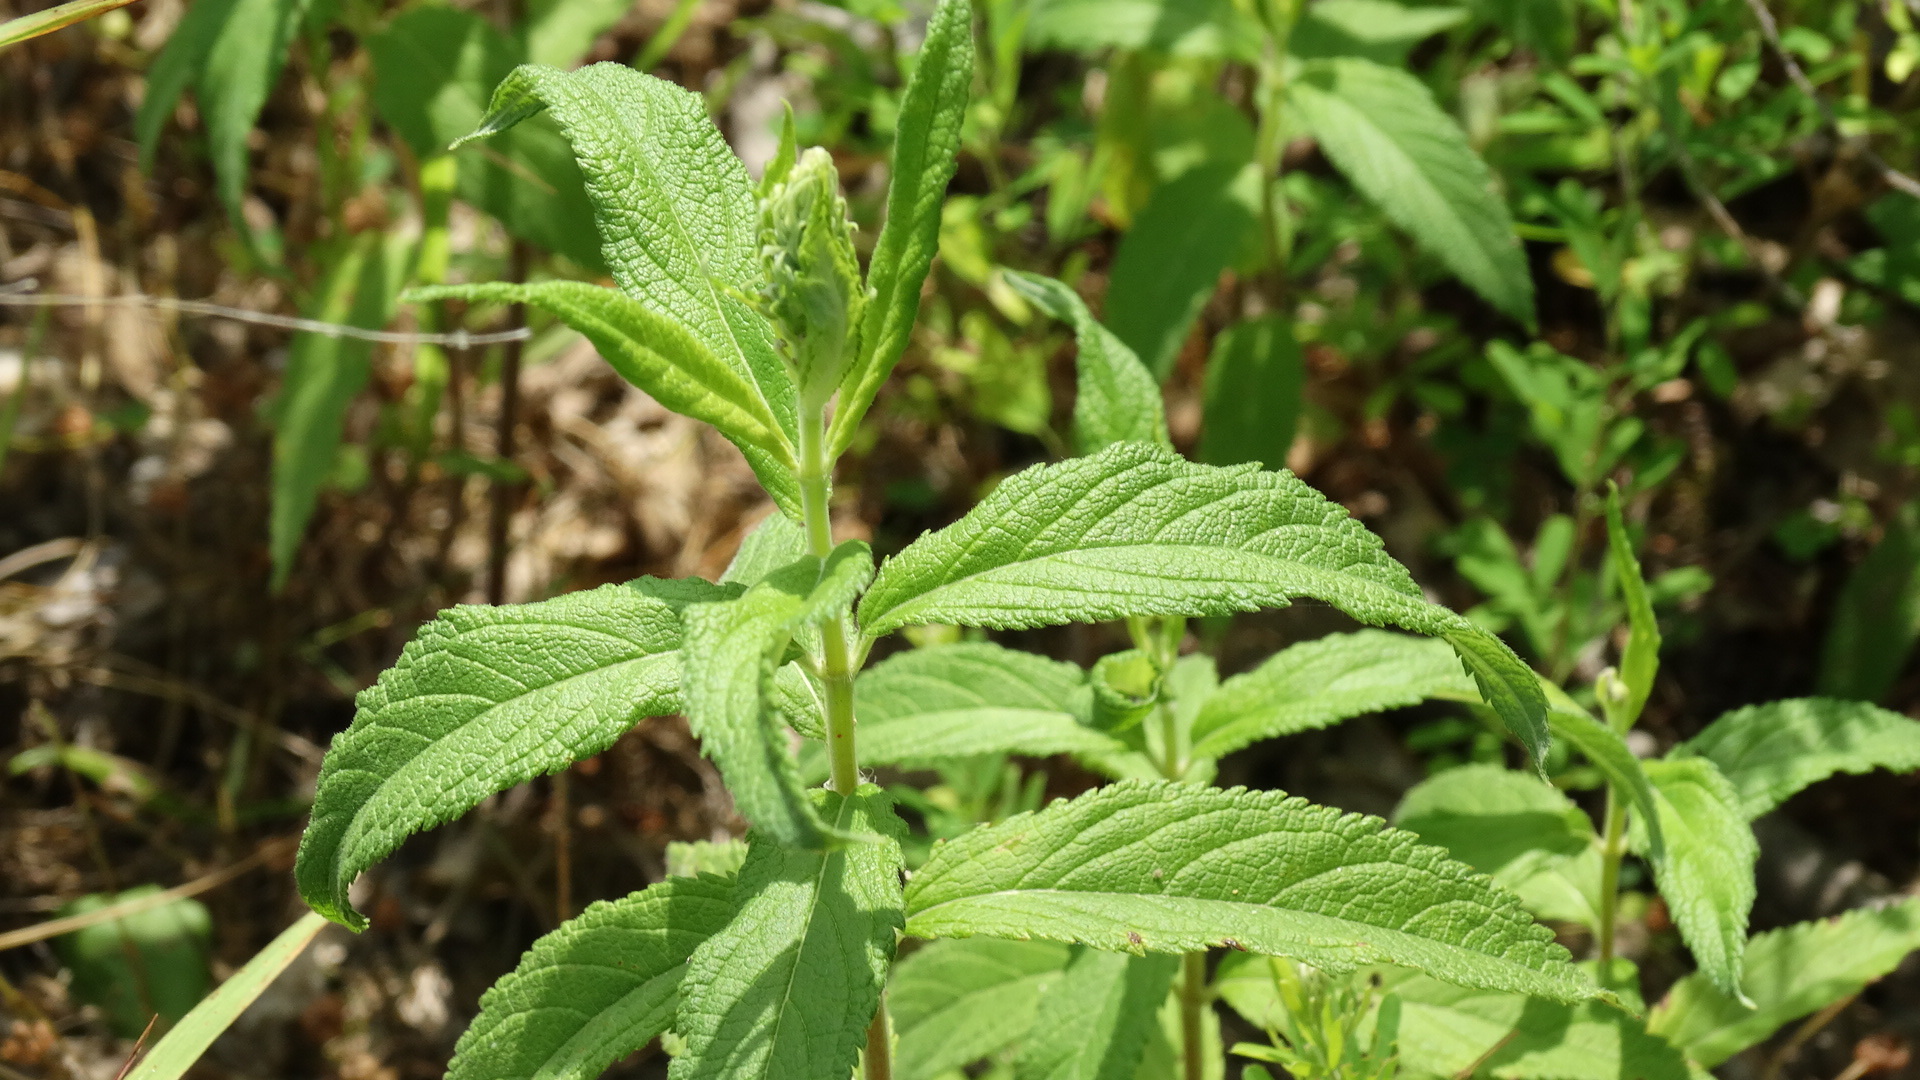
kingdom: Plantae
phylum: Tracheophyta
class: Magnoliopsida
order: Lamiales
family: Lamiaceae
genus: Teucrium
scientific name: Teucrium canadense
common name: American germander
